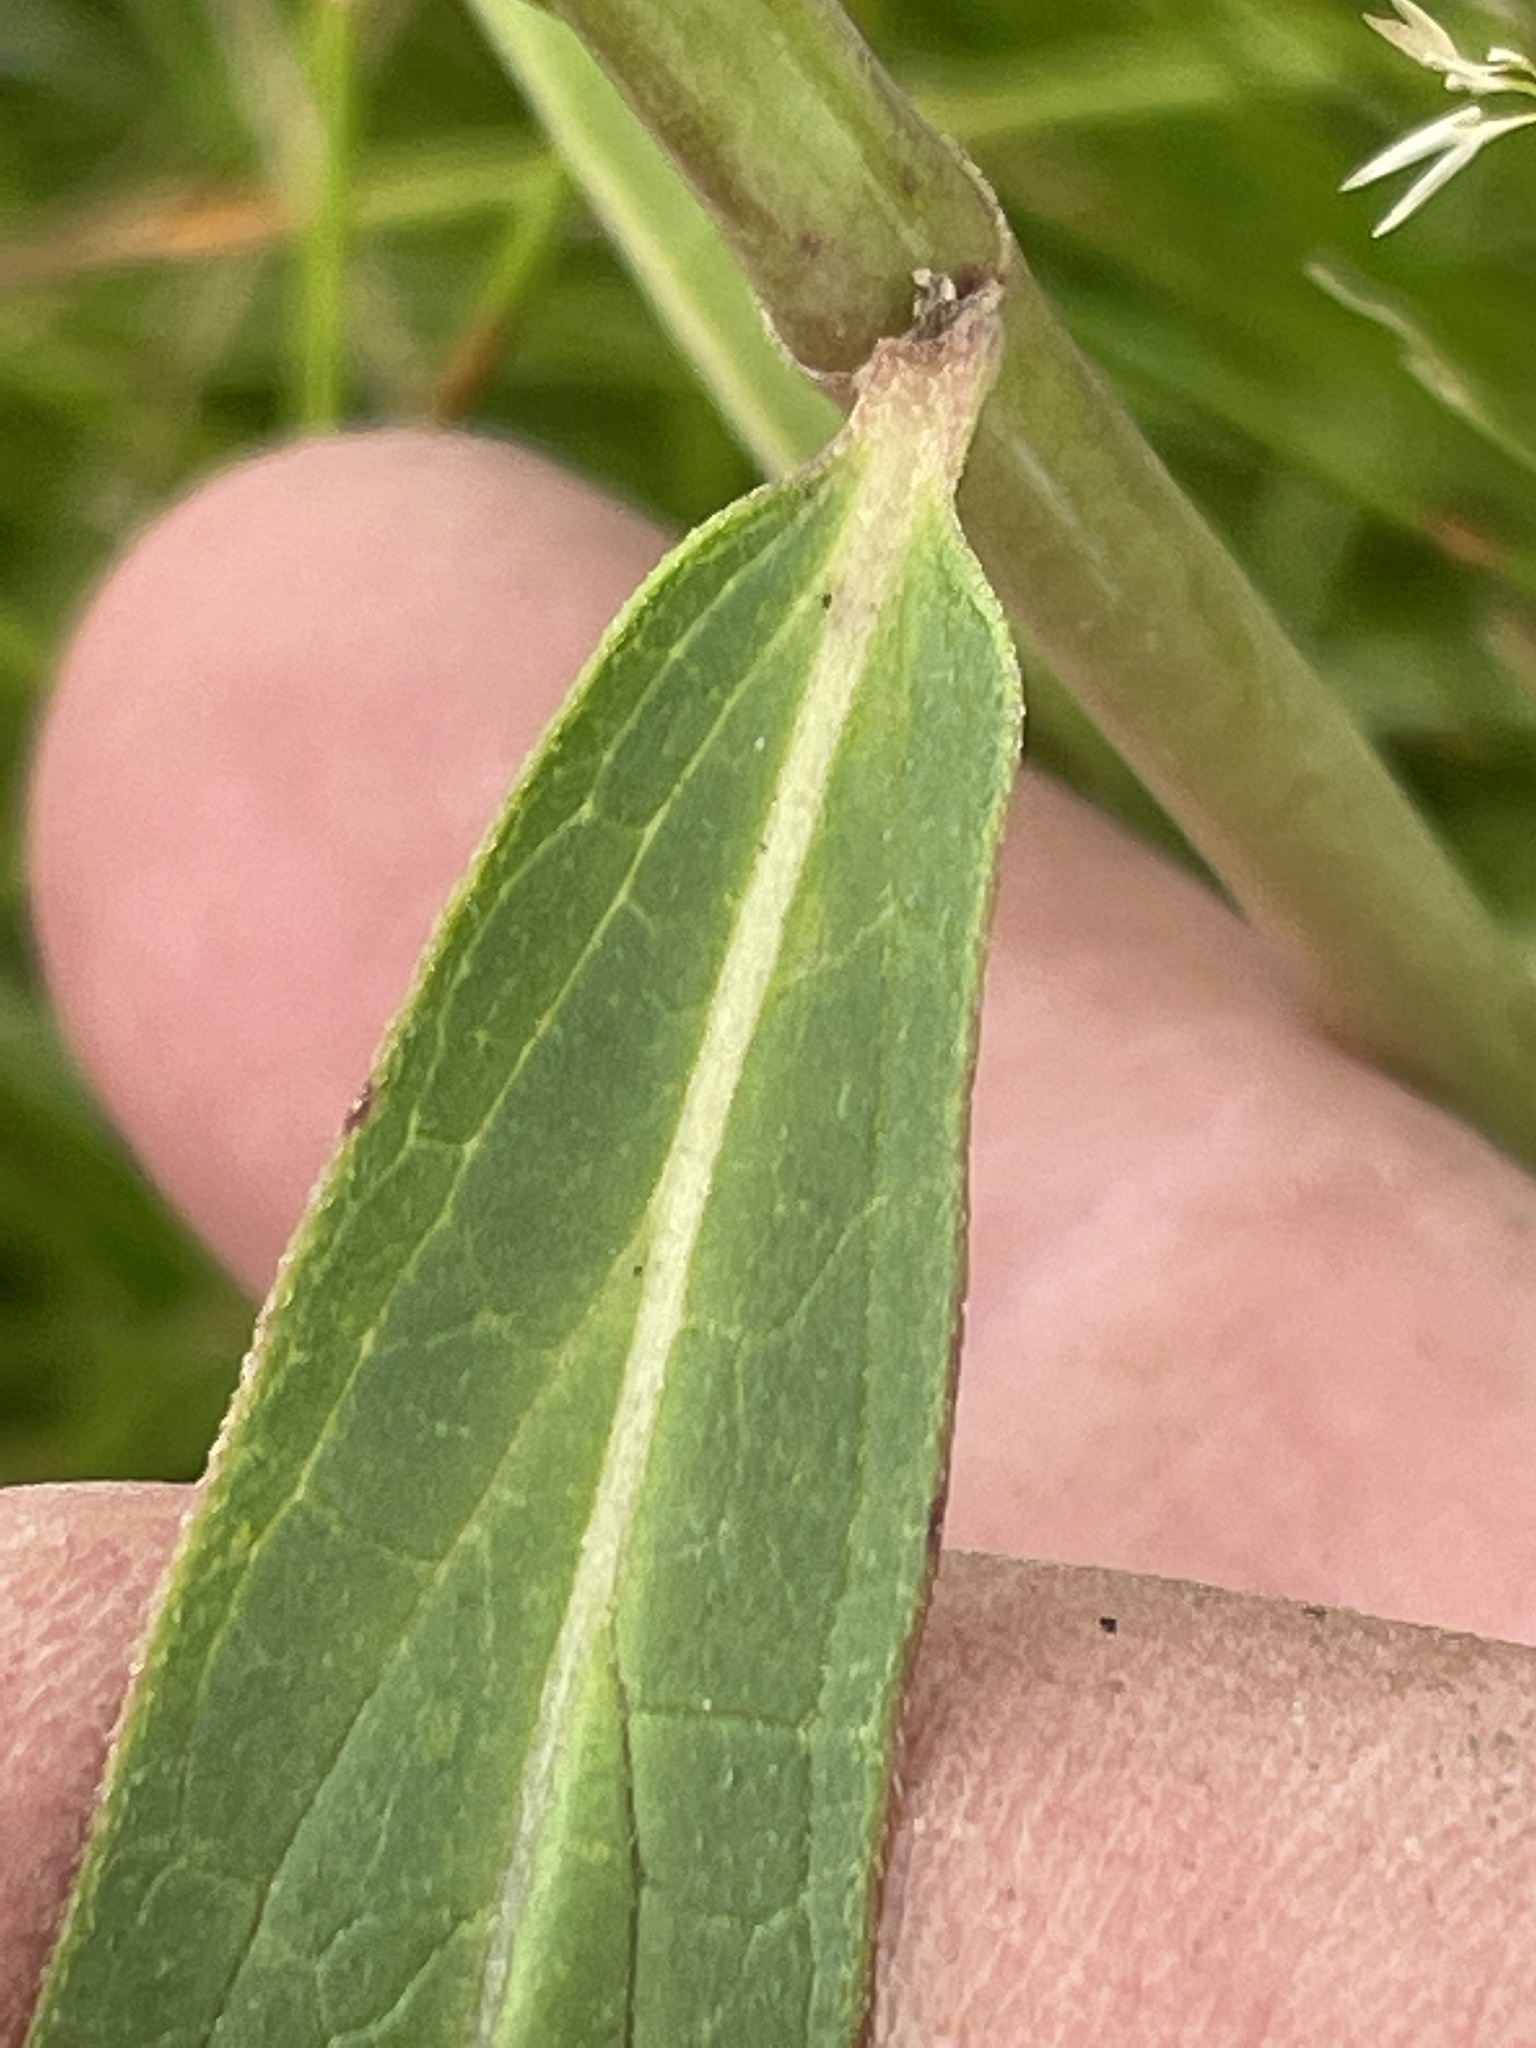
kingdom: Plantae
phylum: Tracheophyta
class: Magnoliopsida
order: Gentianales
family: Apocynaceae
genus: Asclepias
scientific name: Asclepias incarnata
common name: Swamp milkweed
